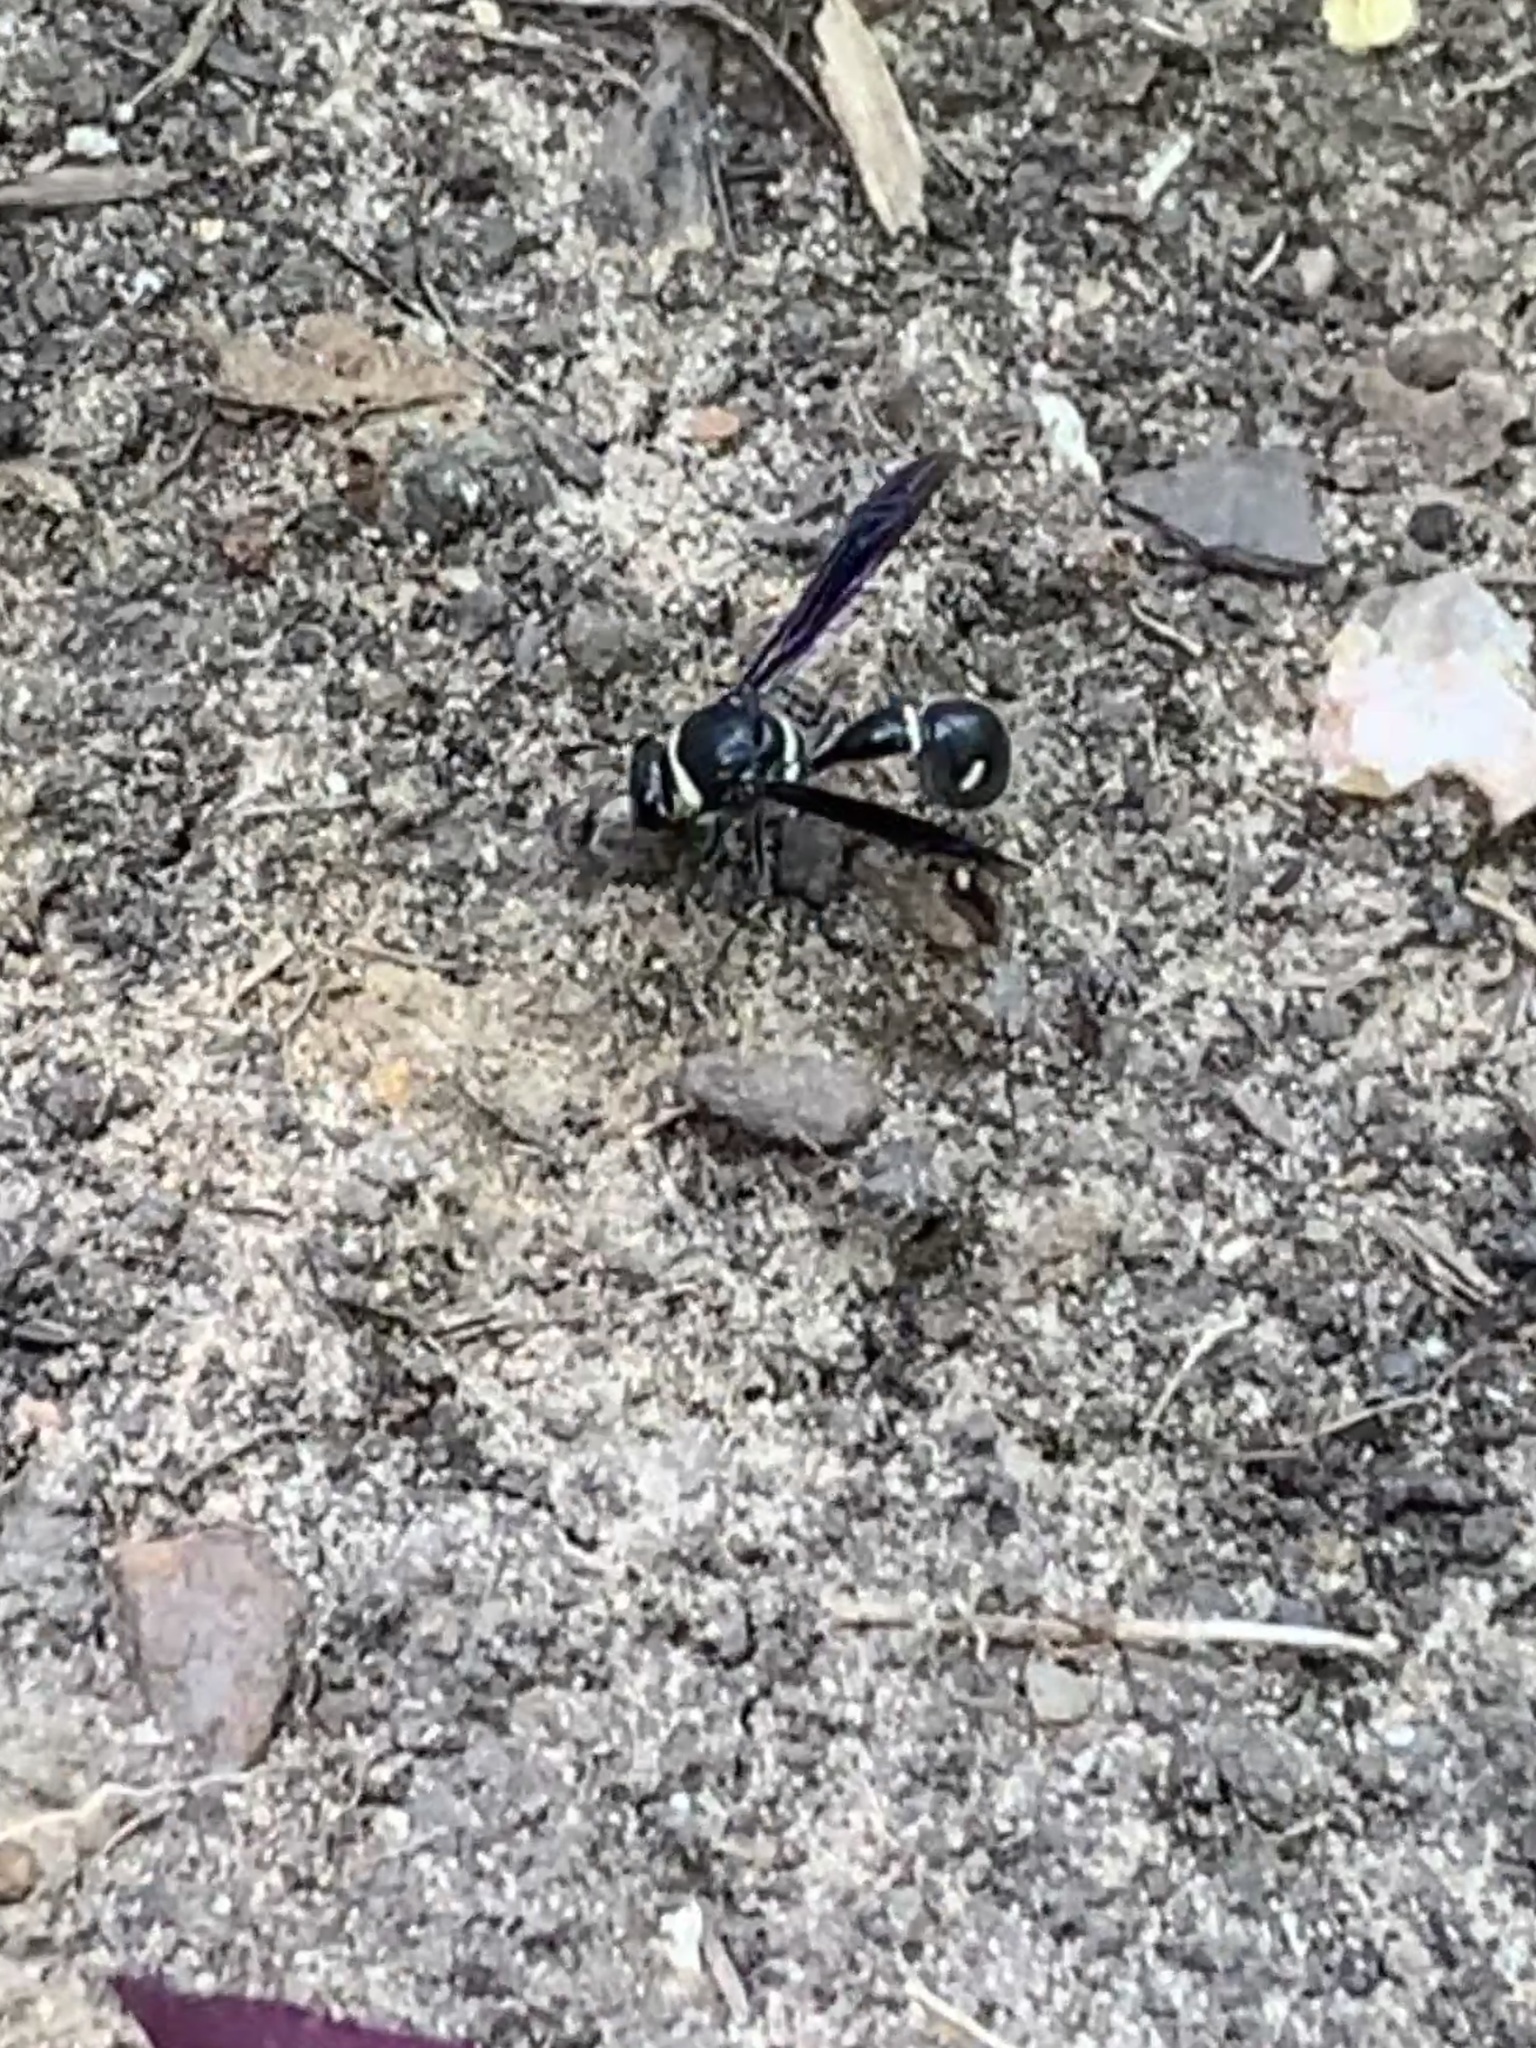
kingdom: Animalia
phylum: Arthropoda
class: Insecta
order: Hymenoptera
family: Vespidae
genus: Eumenes
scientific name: Eumenes fraternus
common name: Fraternal potter wasp
